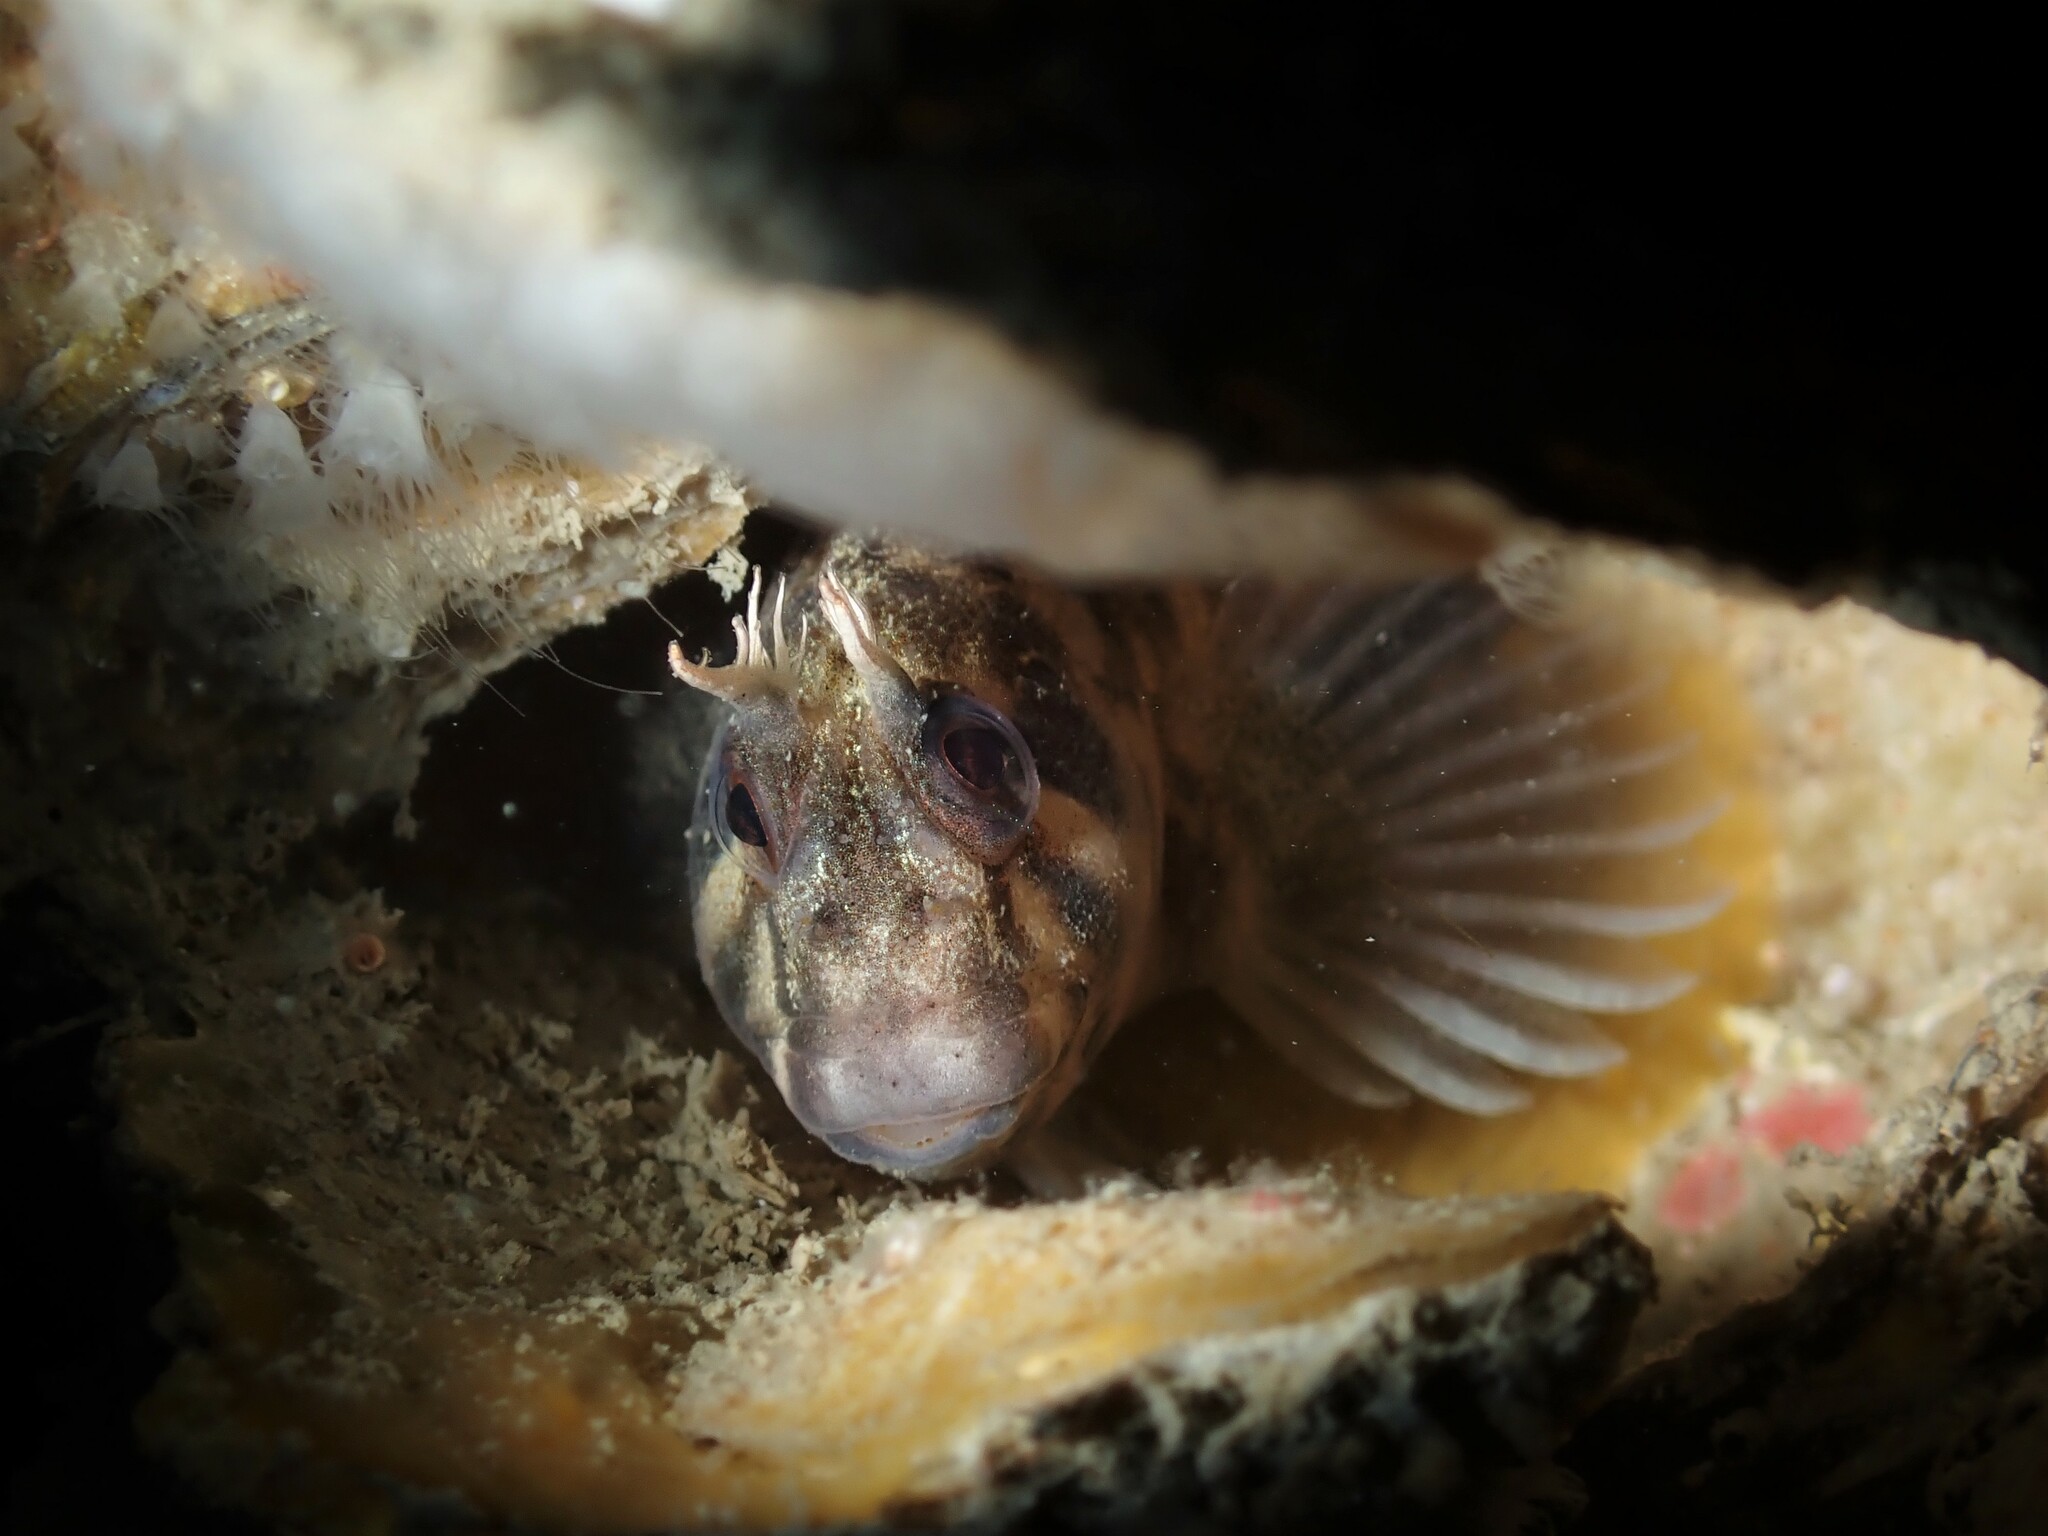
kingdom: Animalia
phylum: Chordata
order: Perciformes
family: Blenniidae
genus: Parablennius
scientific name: Parablennius tasmanianus
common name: Tasmanian blenny
